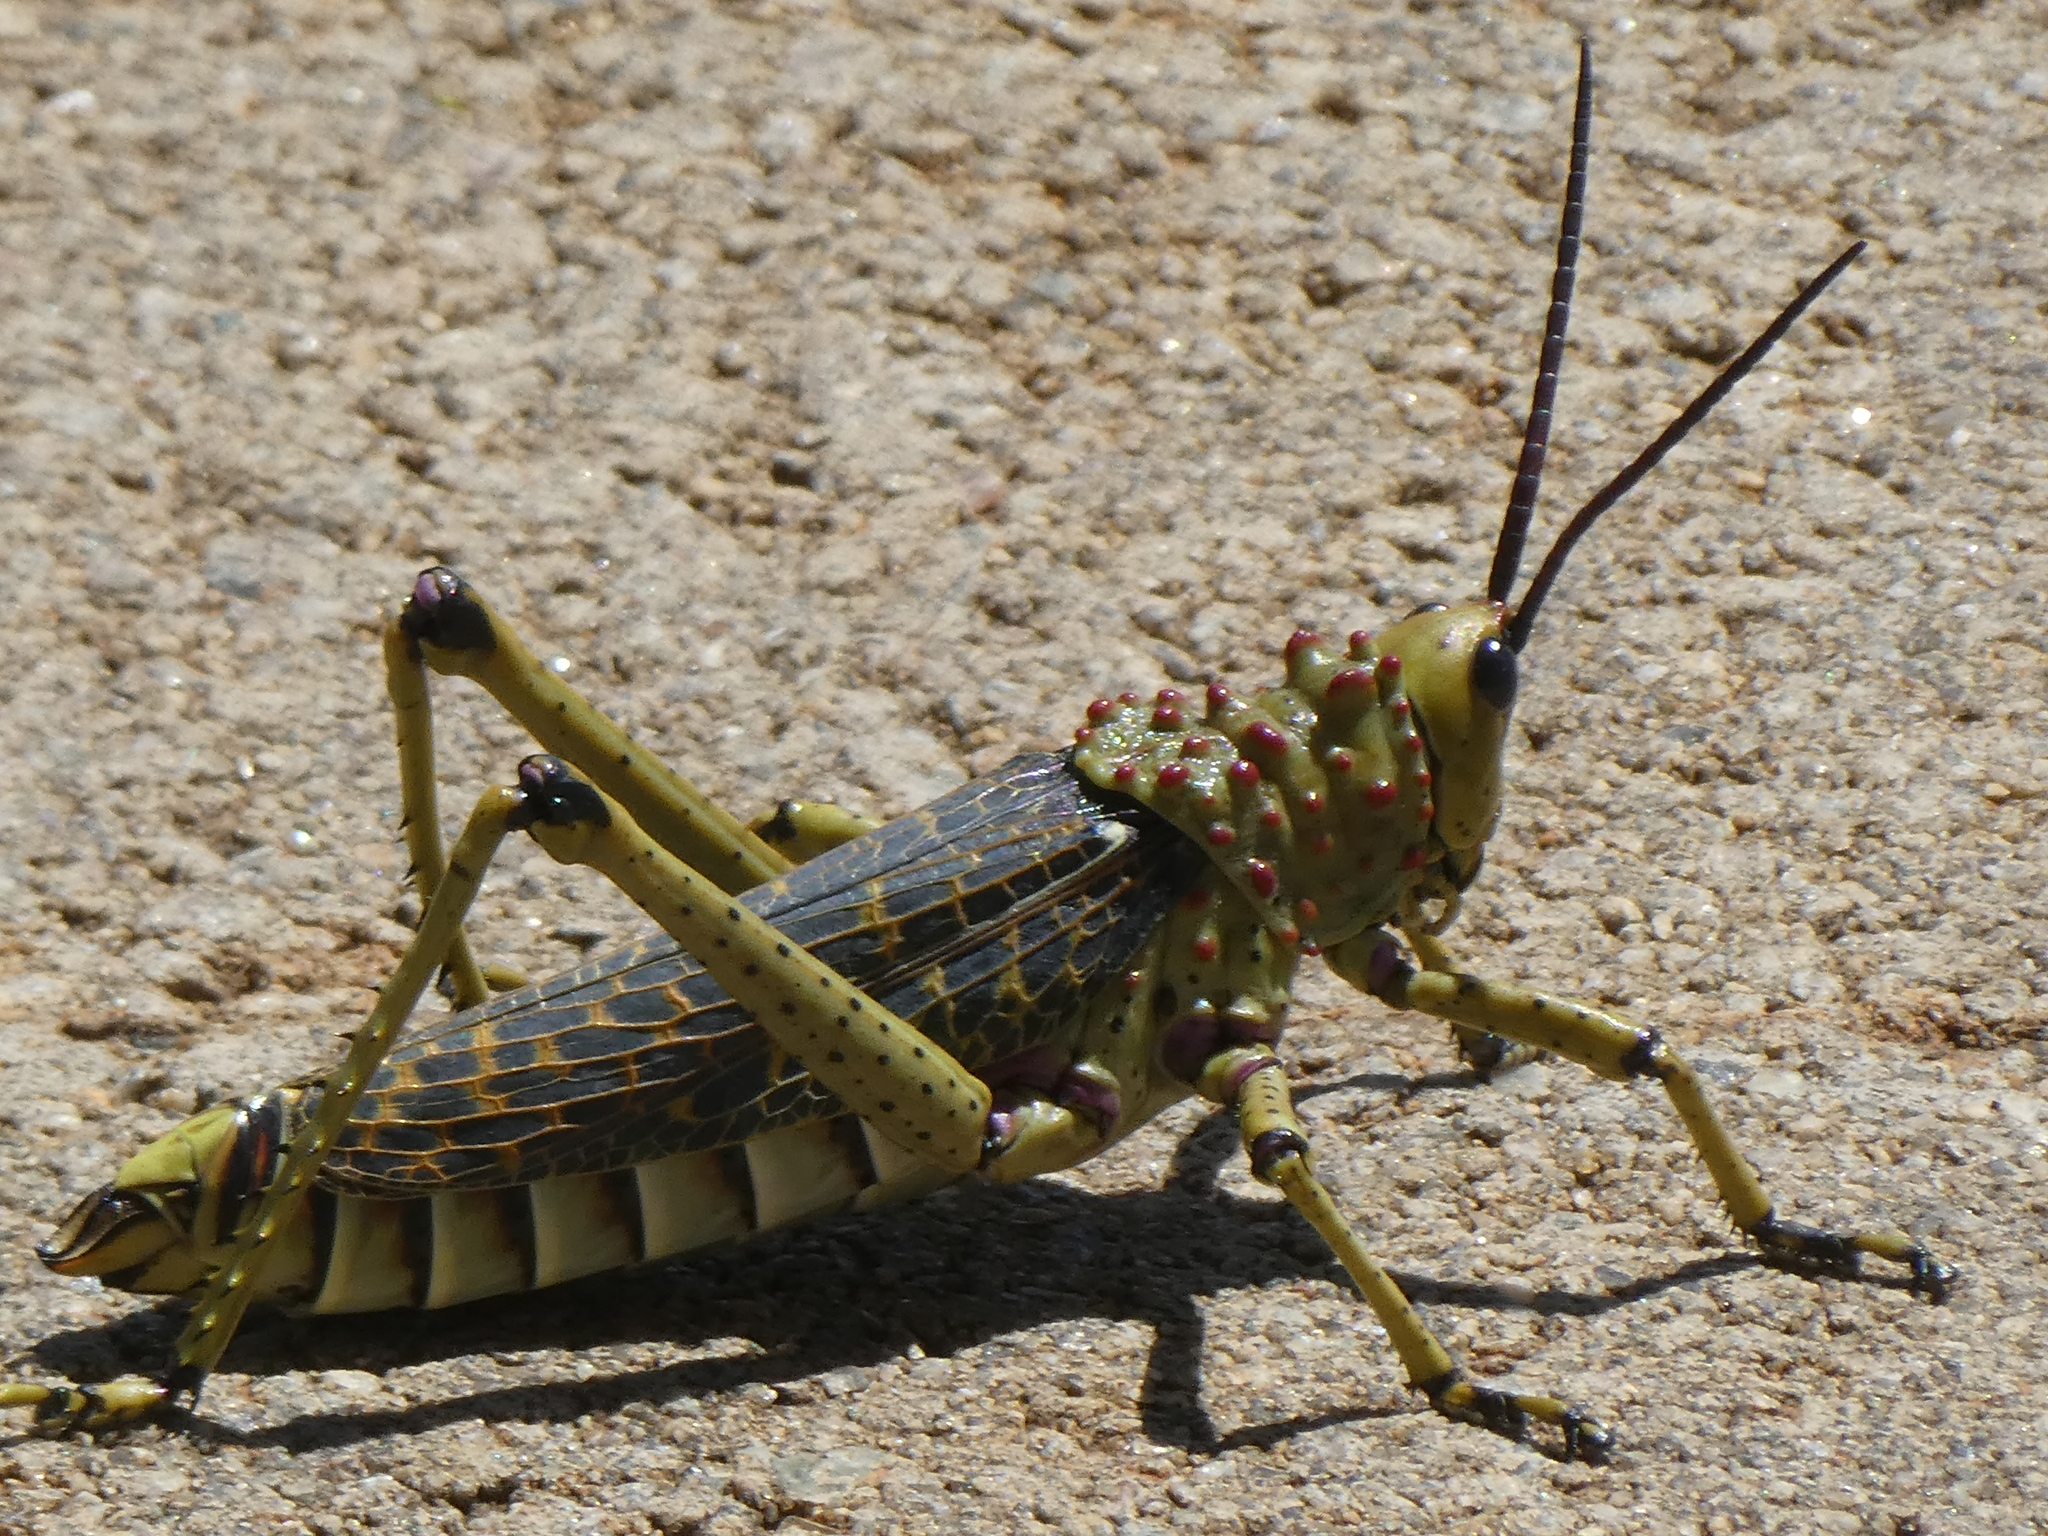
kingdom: Animalia
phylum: Arthropoda
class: Insecta
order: Orthoptera
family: Pyrgomorphidae
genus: Phymateus
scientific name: Phymateus baccatus
